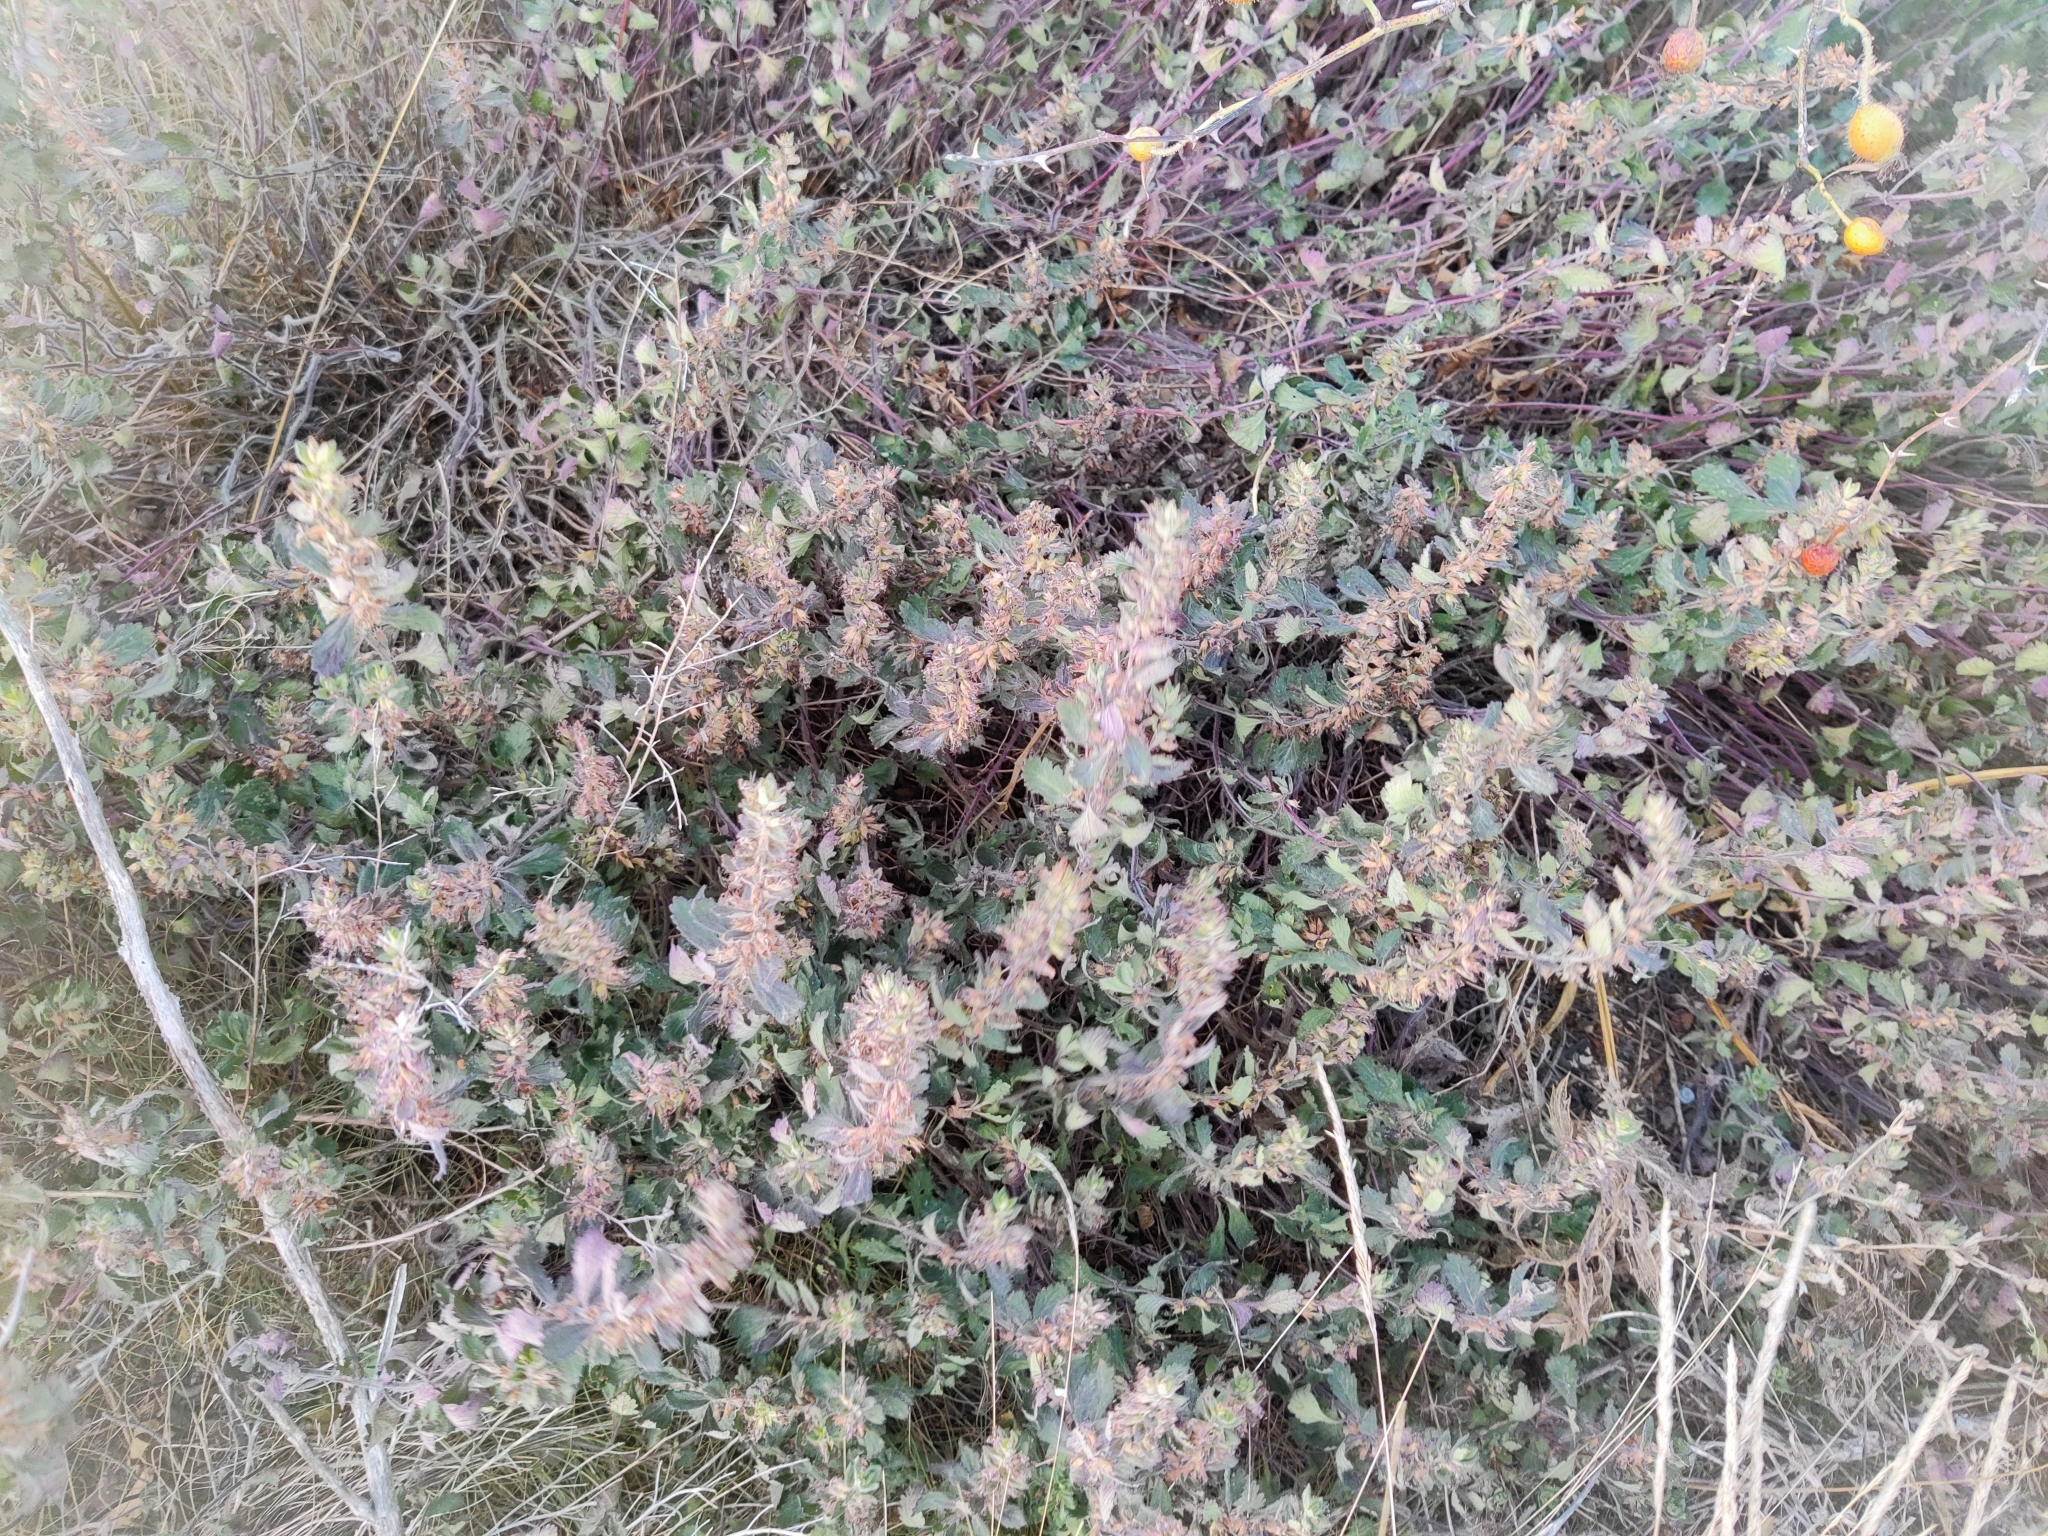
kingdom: Plantae
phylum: Tracheophyta
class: Magnoliopsida
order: Lamiales
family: Lamiaceae
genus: Teucrium
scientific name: Teucrium chamaedrys
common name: Wall germander
